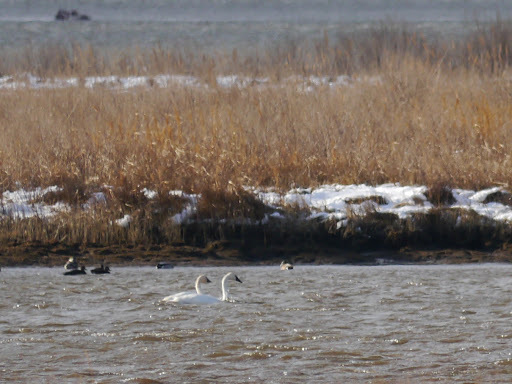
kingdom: Animalia
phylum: Chordata
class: Aves
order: Anseriformes
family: Anatidae
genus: Cygnus
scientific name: Cygnus columbianus
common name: Tundra swan
